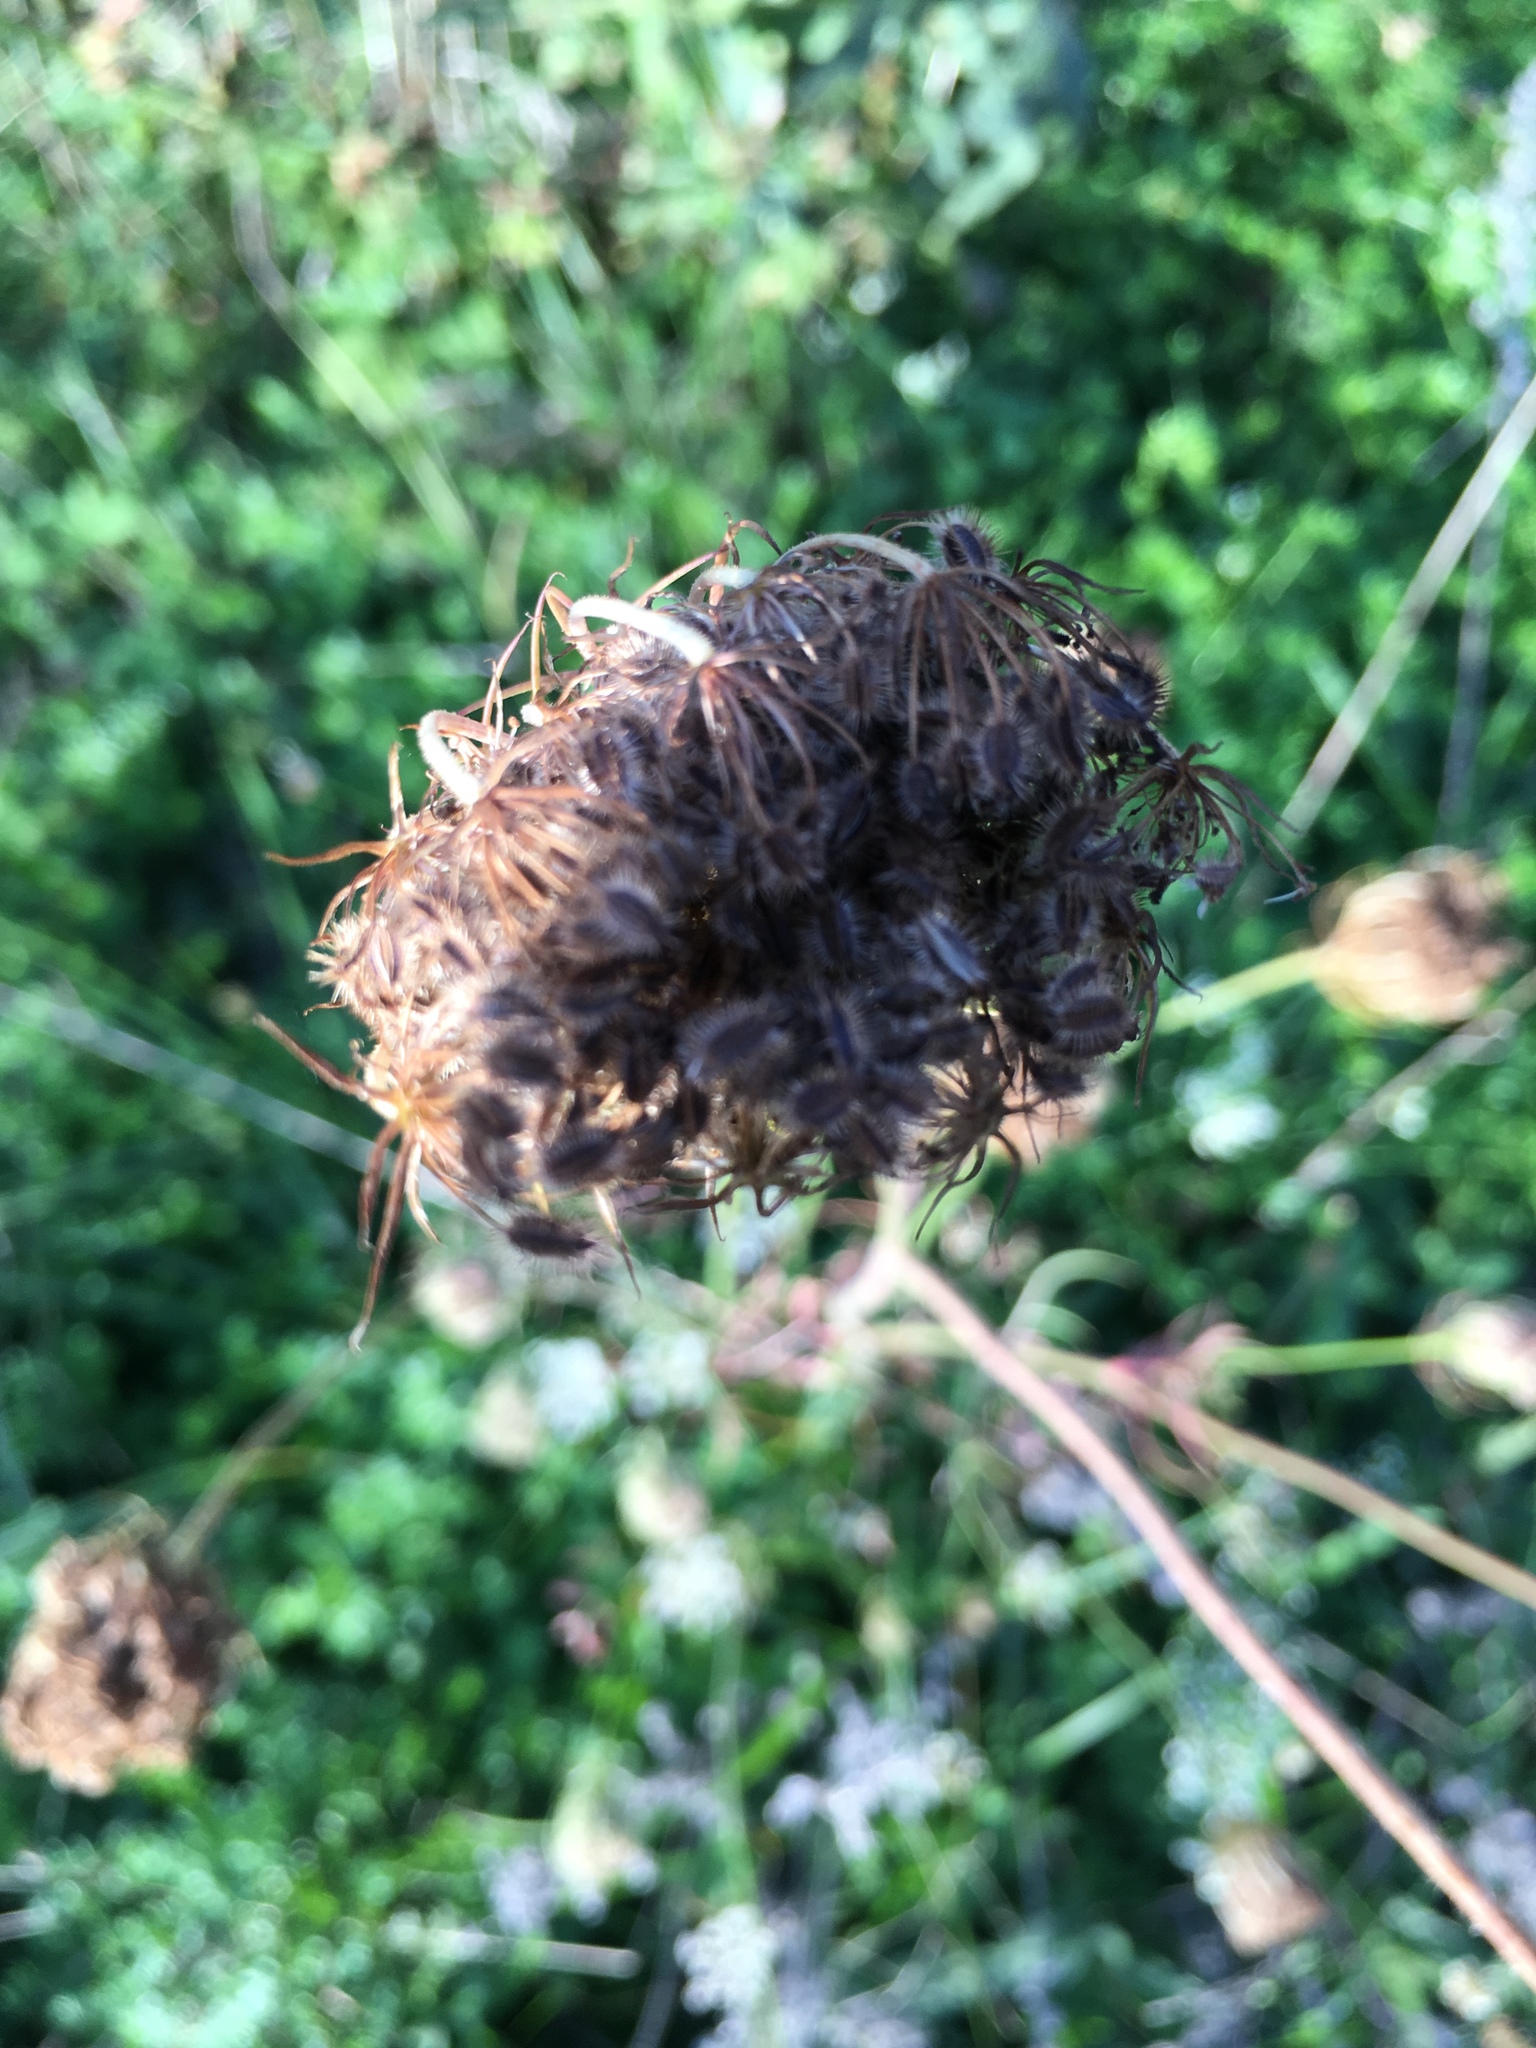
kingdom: Plantae
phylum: Tracheophyta
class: Magnoliopsida
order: Apiales
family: Apiaceae
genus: Daucus
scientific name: Daucus carota
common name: Wild carrot
